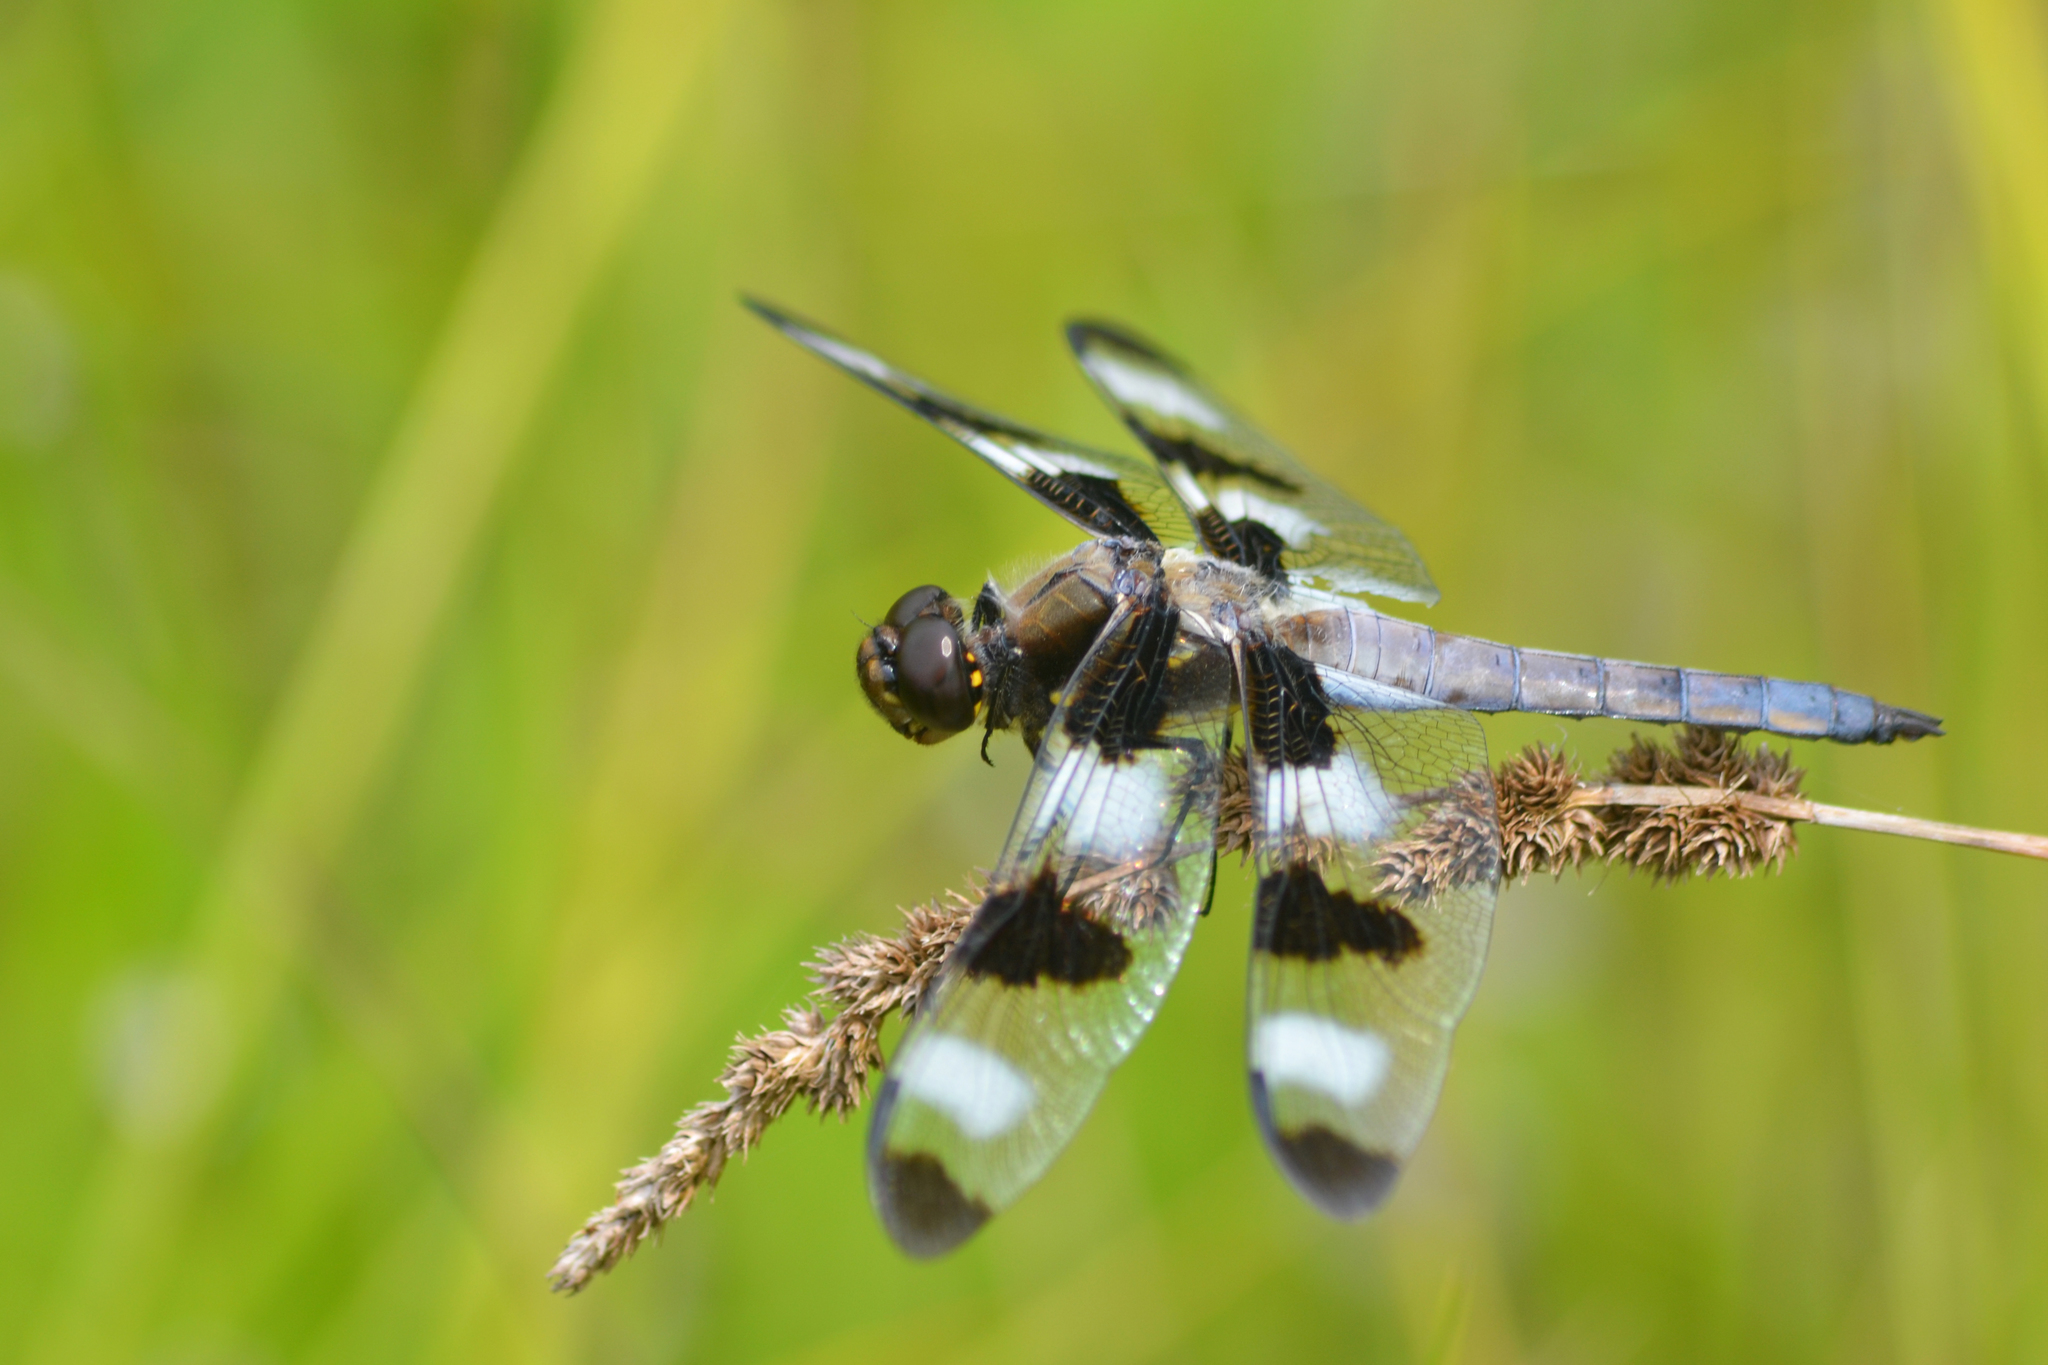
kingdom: Animalia
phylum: Arthropoda
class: Insecta
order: Odonata
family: Libellulidae
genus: Libellula
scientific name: Libellula pulchella
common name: Twelve-spotted skimmer
